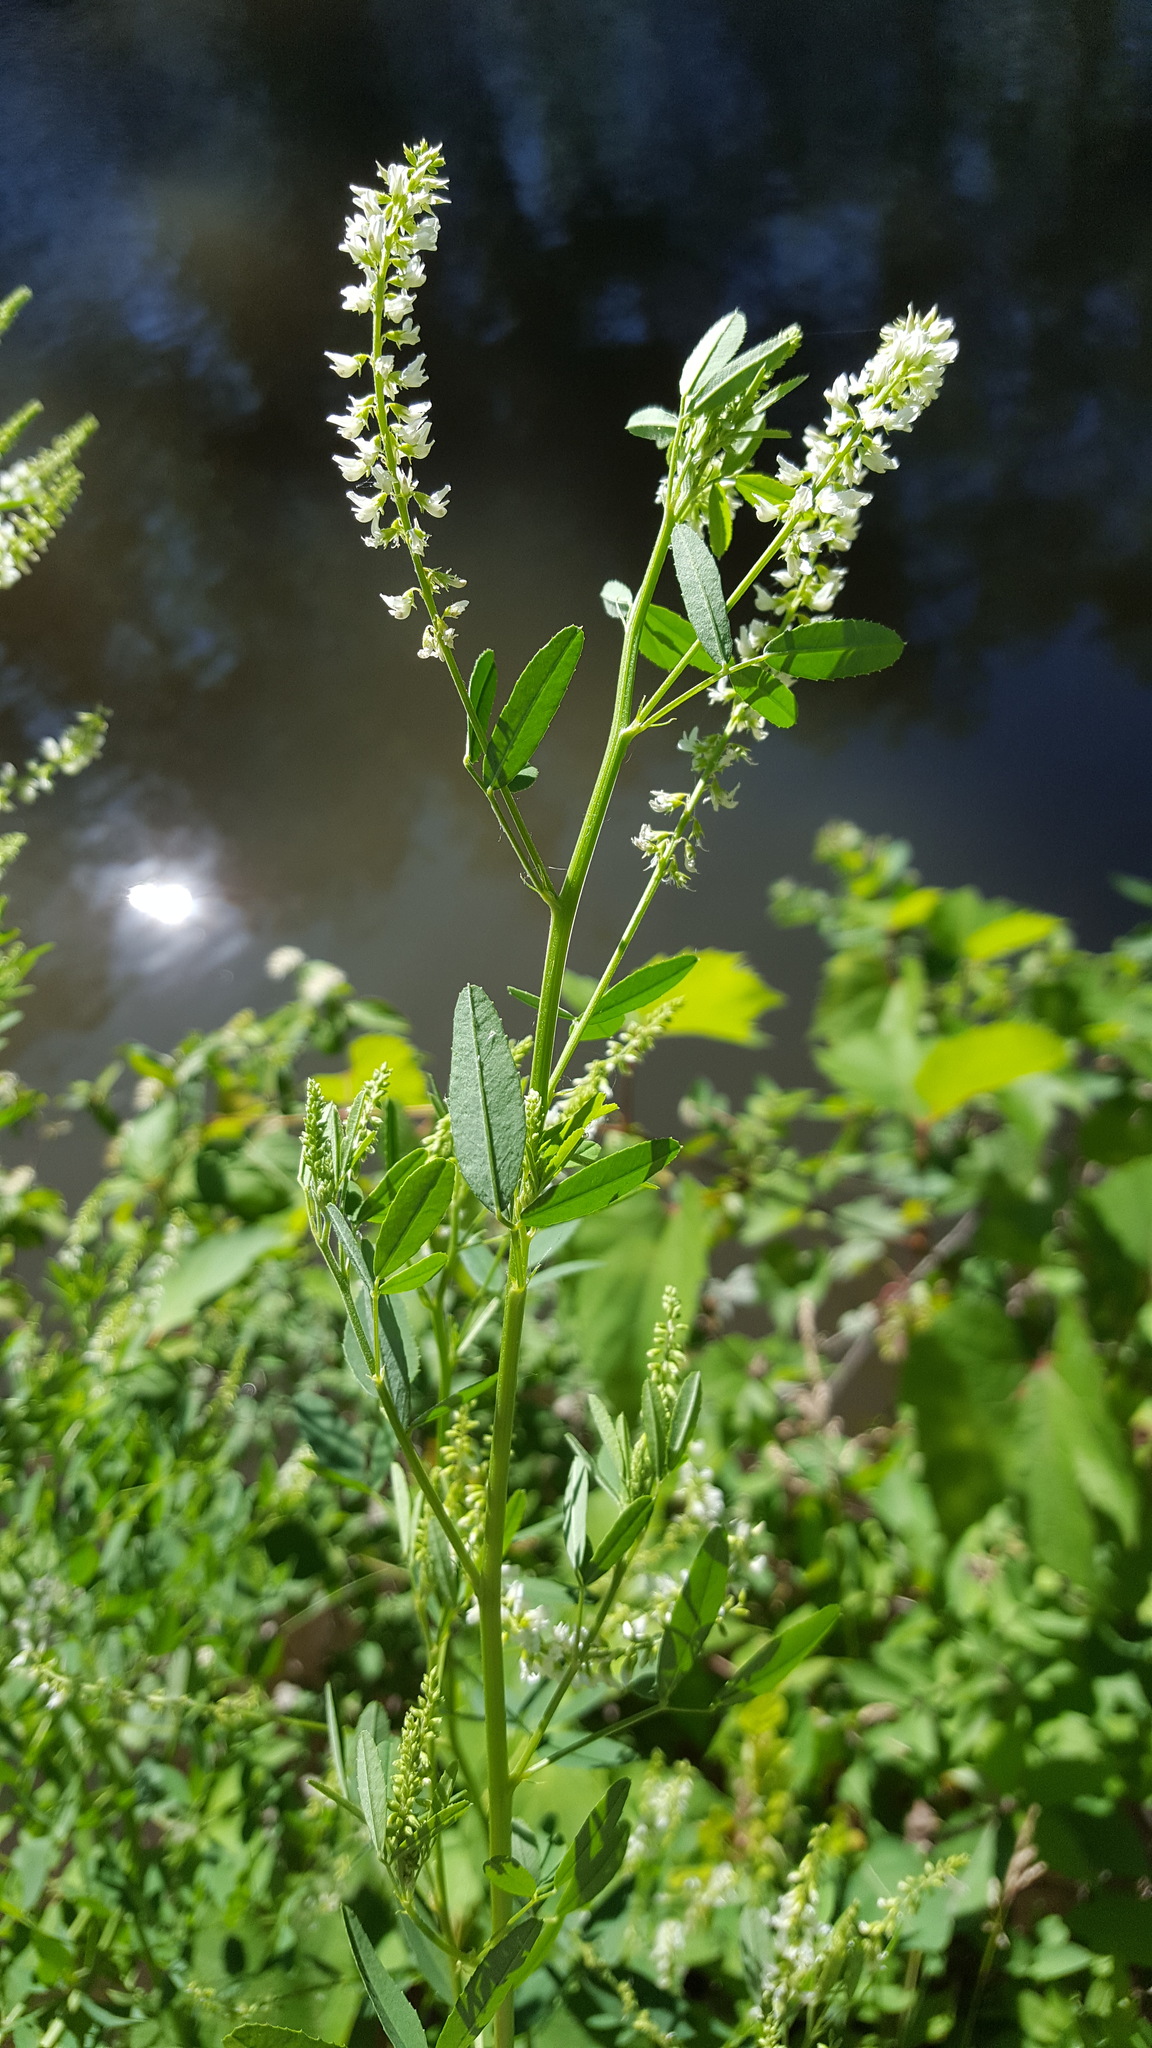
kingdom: Plantae
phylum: Tracheophyta
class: Magnoliopsida
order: Fabales
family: Fabaceae
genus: Melilotus
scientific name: Melilotus albus
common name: White melilot
